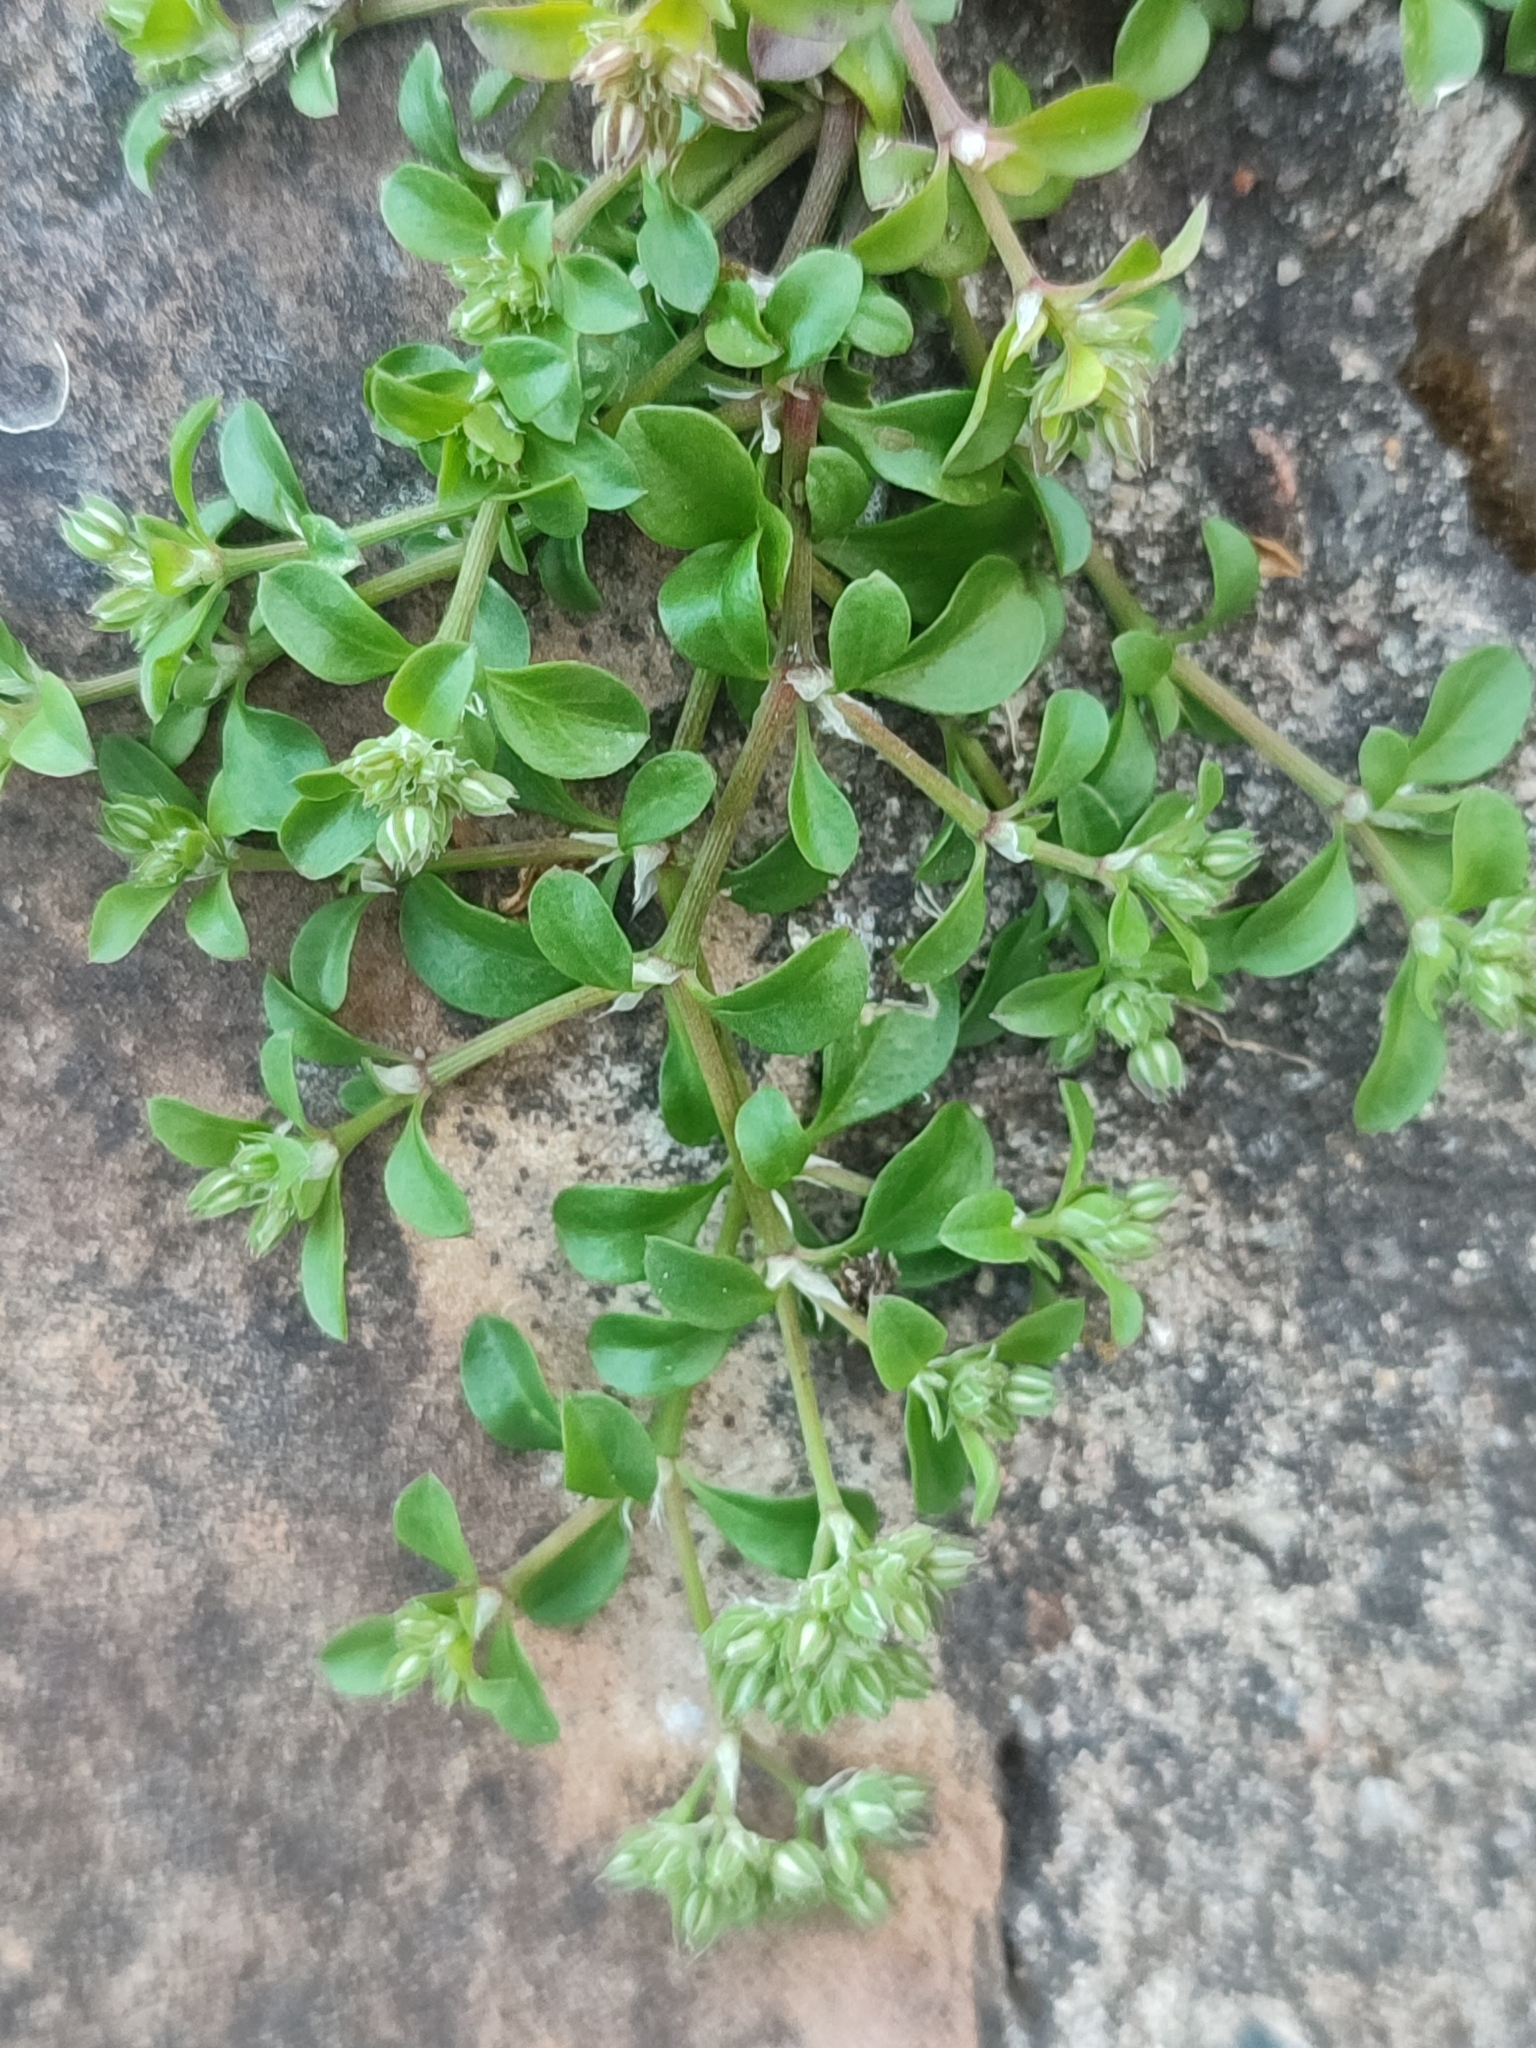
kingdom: Plantae
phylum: Tracheophyta
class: Magnoliopsida
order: Caryophyllales
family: Caryophyllaceae
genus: Polycarpon
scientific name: Polycarpon tetraphyllum
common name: Four-leaved all-seed
